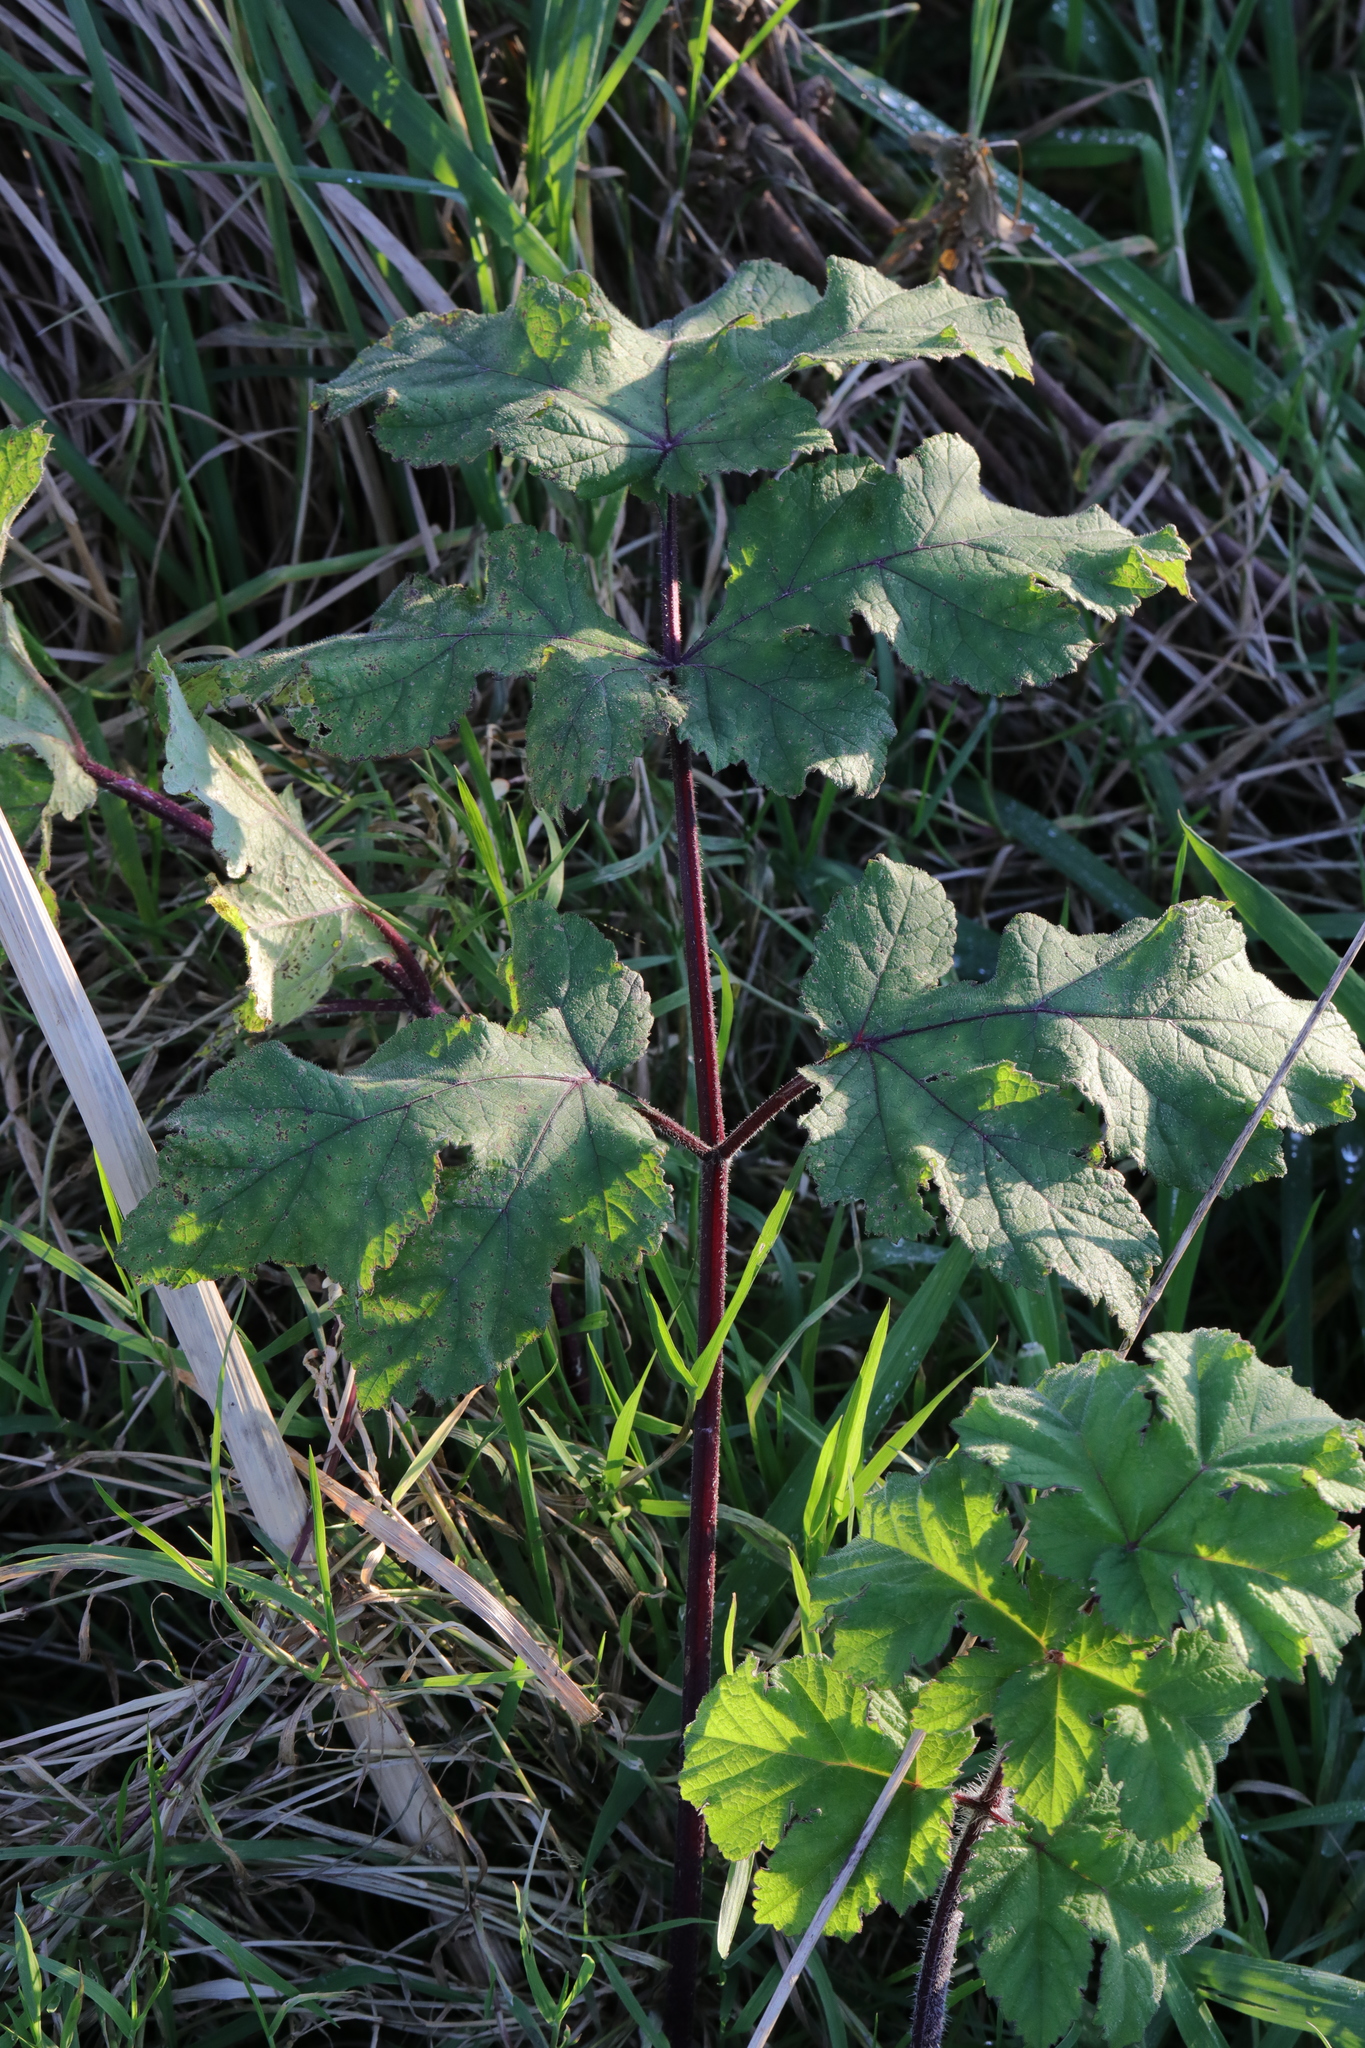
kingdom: Plantae
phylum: Tracheophyta
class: Magnoliopsida
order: Apiales
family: Apiaceae
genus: Heracleum
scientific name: Heracleum sphondylium
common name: Hogweed
